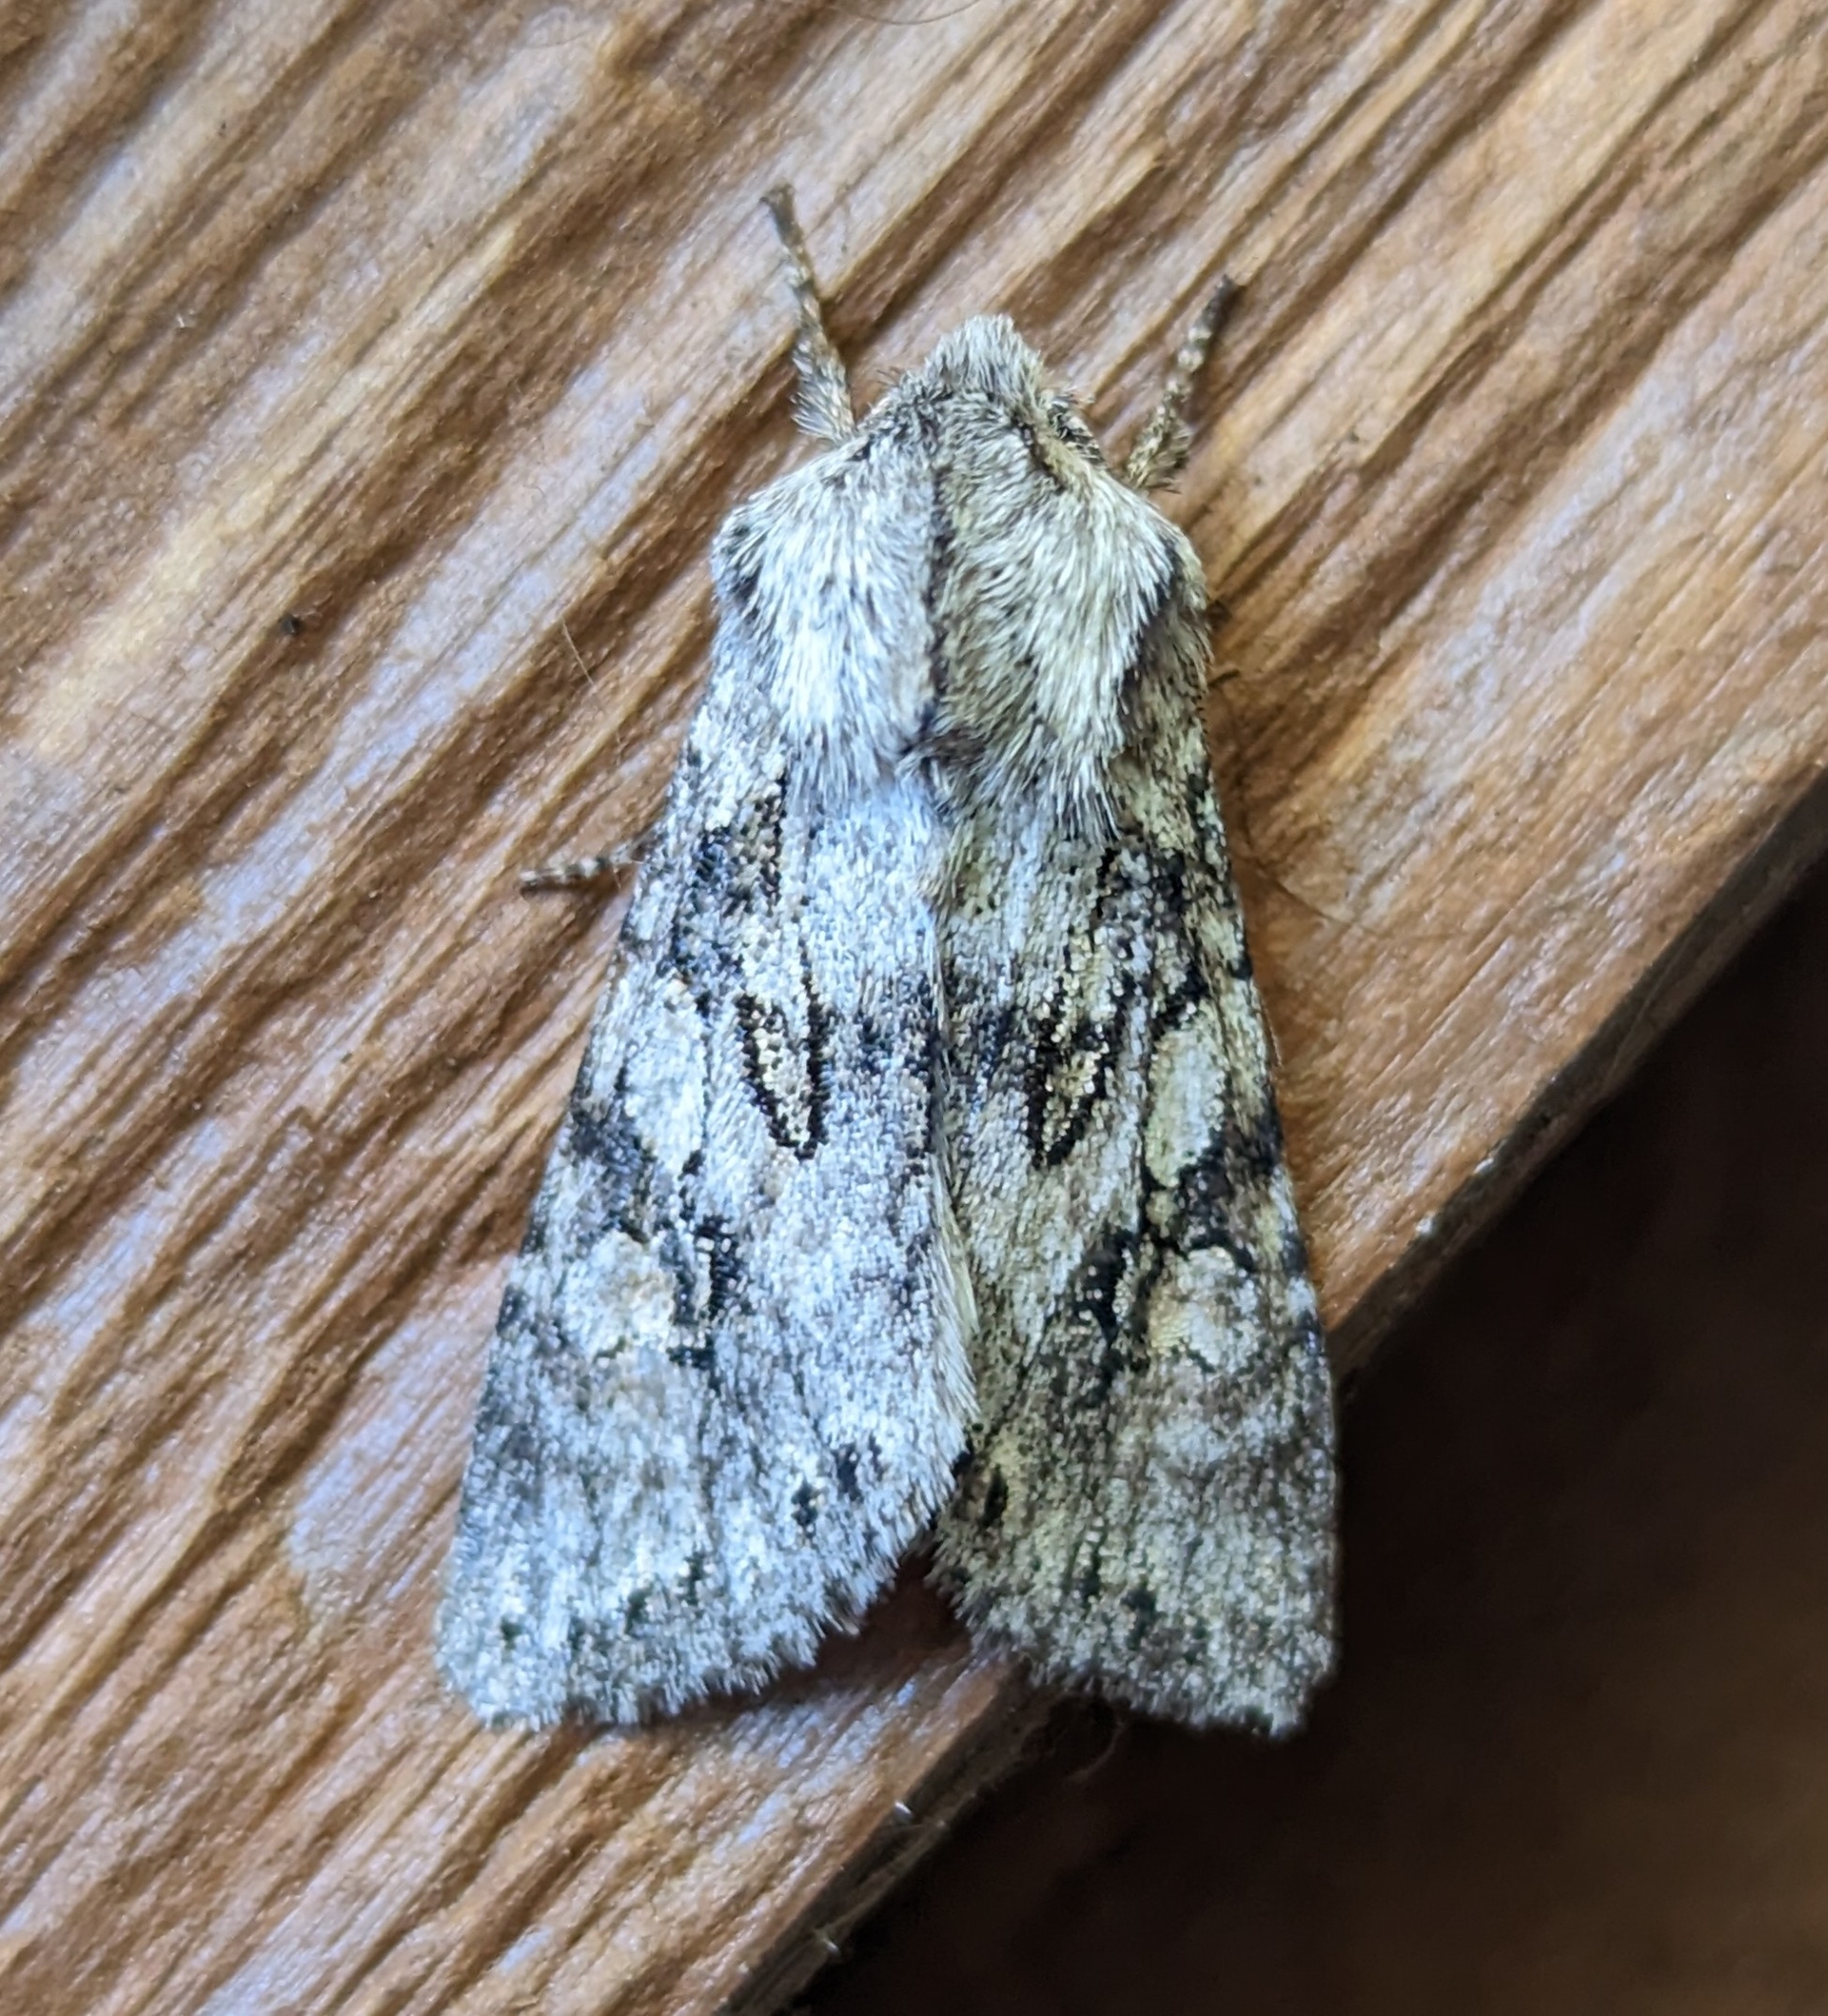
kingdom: Animalia
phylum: Arthropoda
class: Insecta
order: Lepidoptera
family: Noctuidae
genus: Egira
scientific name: Egira simplex
